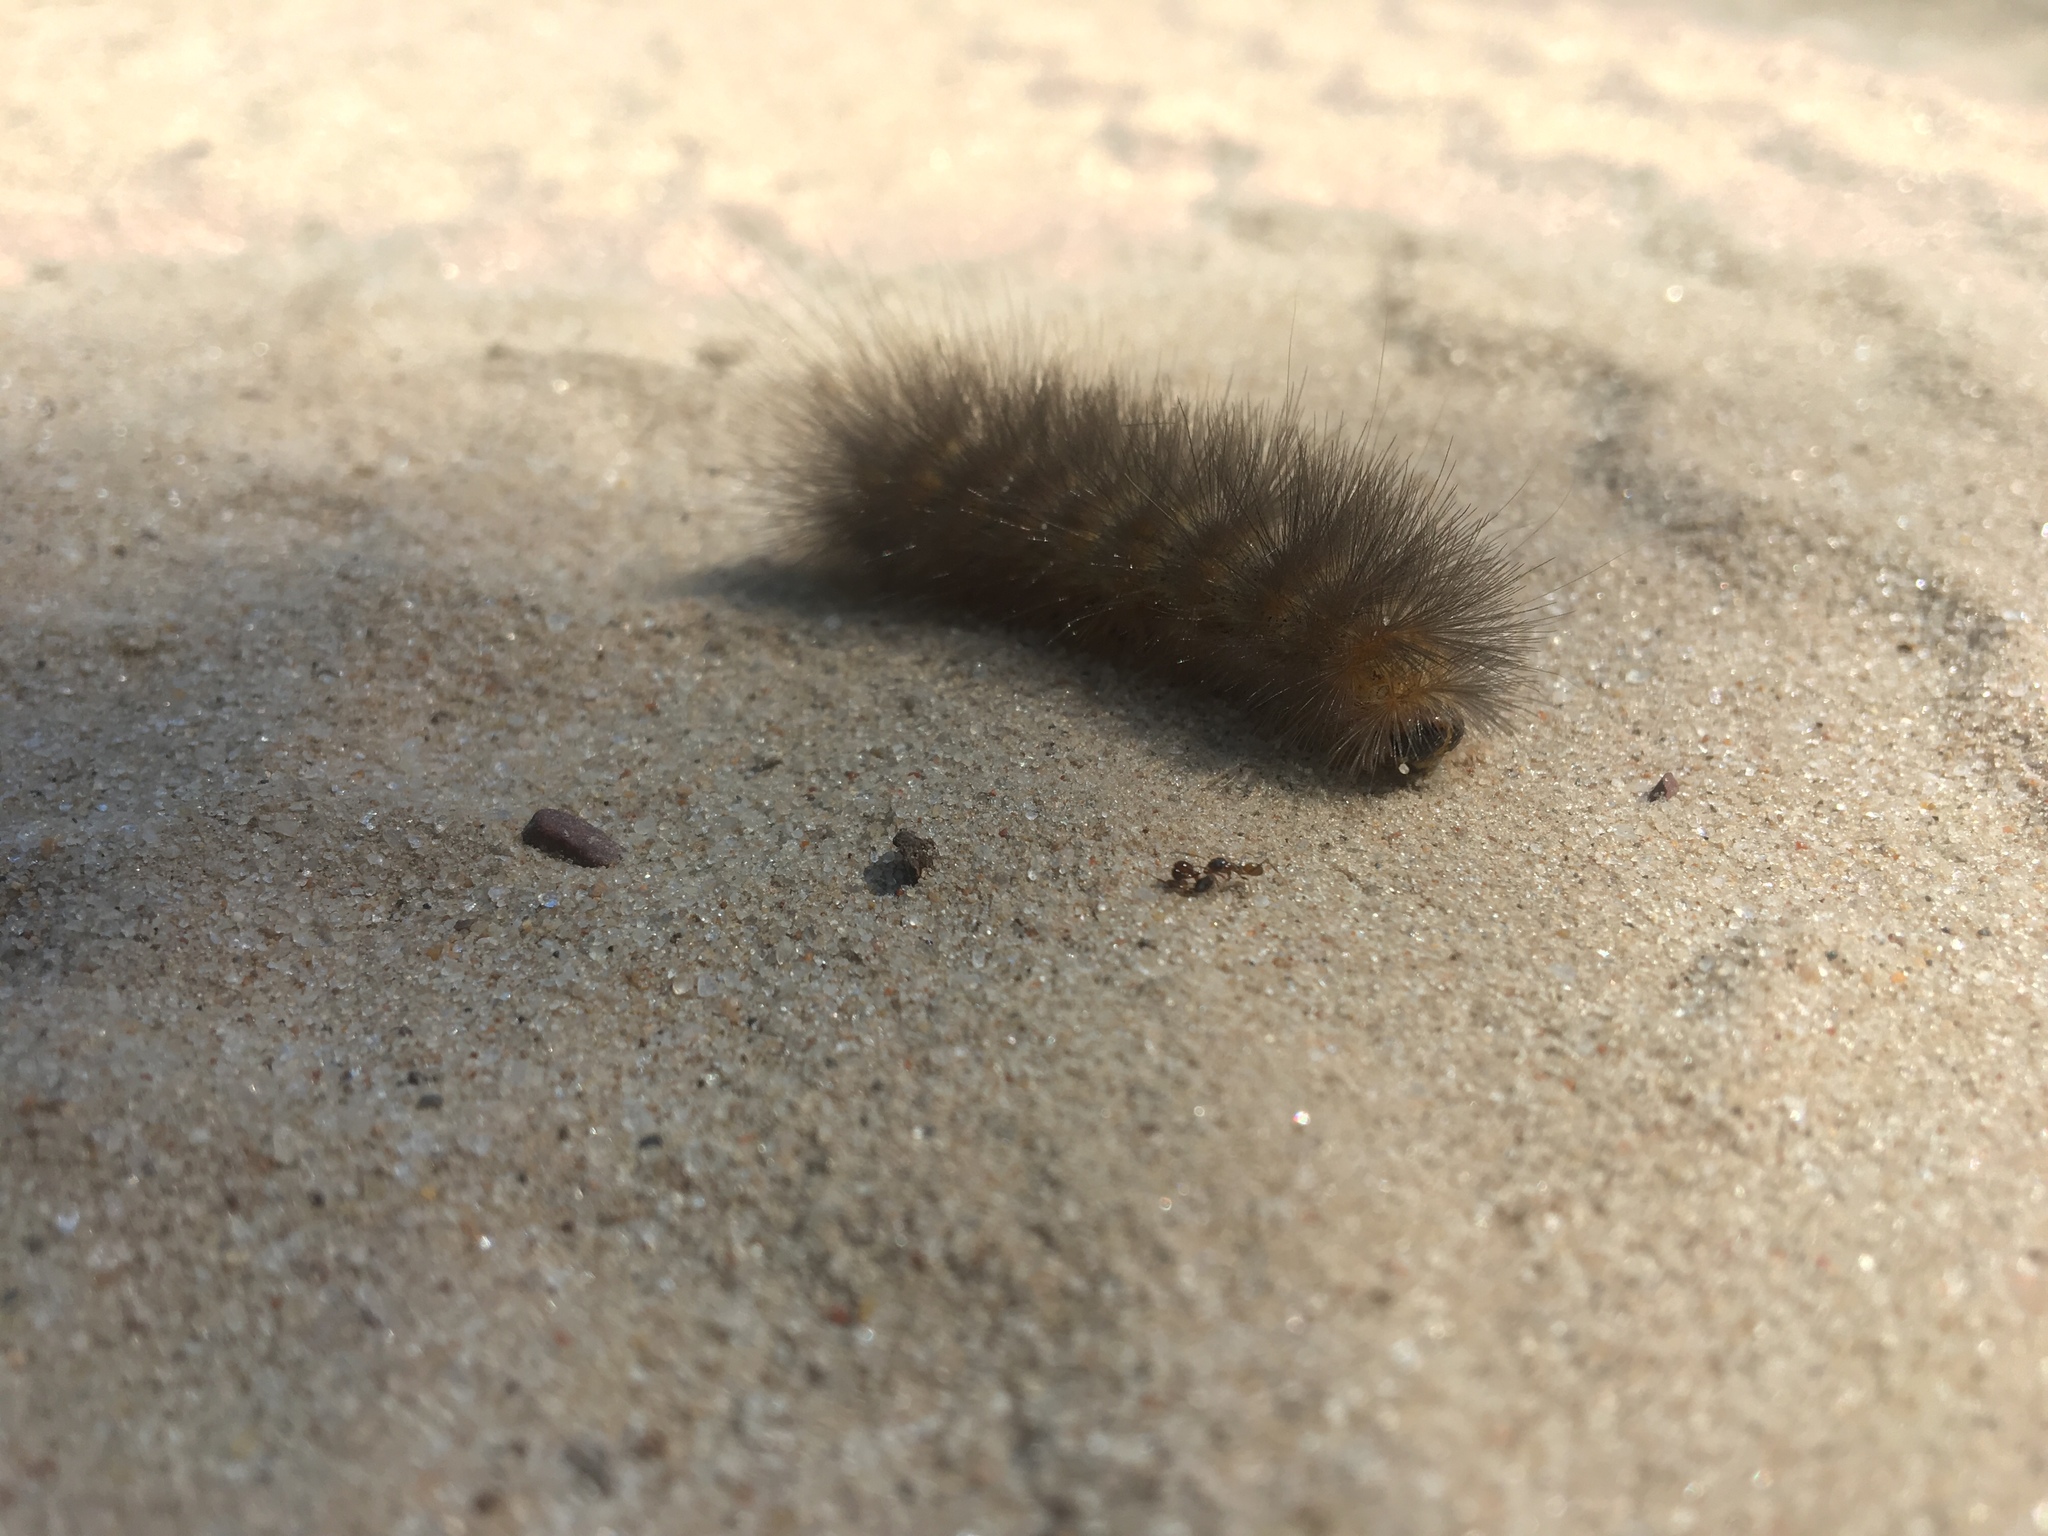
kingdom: Animalia
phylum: Arthropoda
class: Insecta
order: Lepidoptera
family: Erebidae
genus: Estigmene
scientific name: Estigmene acrea
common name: Salt marsh moth
